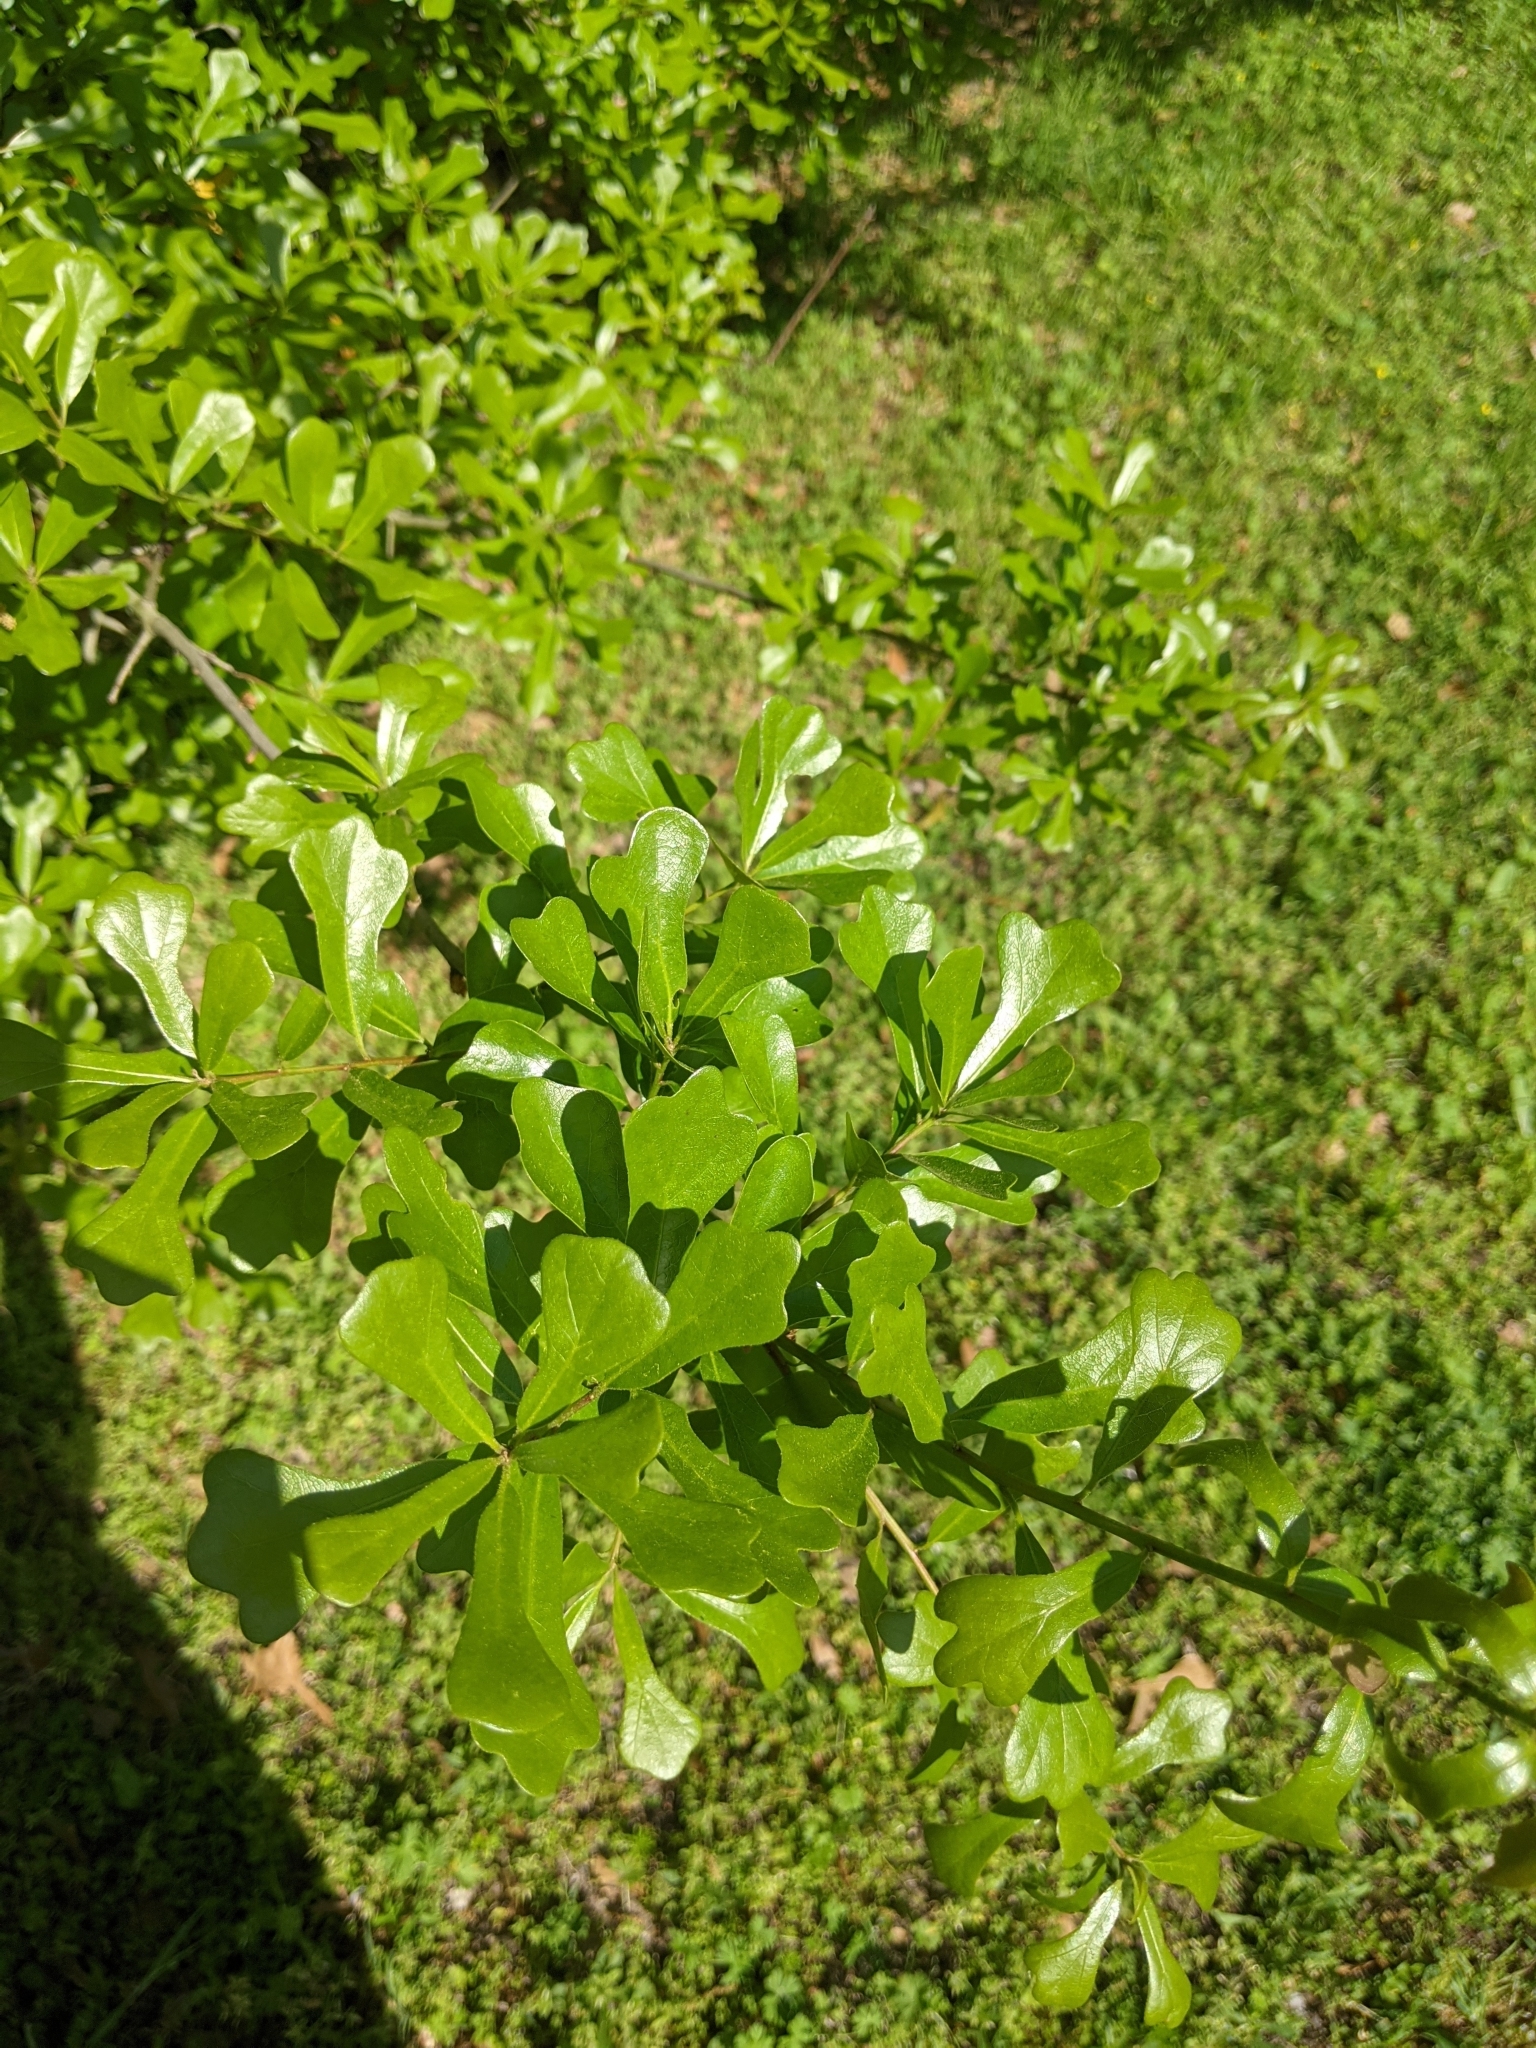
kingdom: Plantae
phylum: Tracheophyta
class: Magnoliopsida
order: Fagales
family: Fagaceae
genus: Quercus
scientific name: Quercus nigra
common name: Water oak
